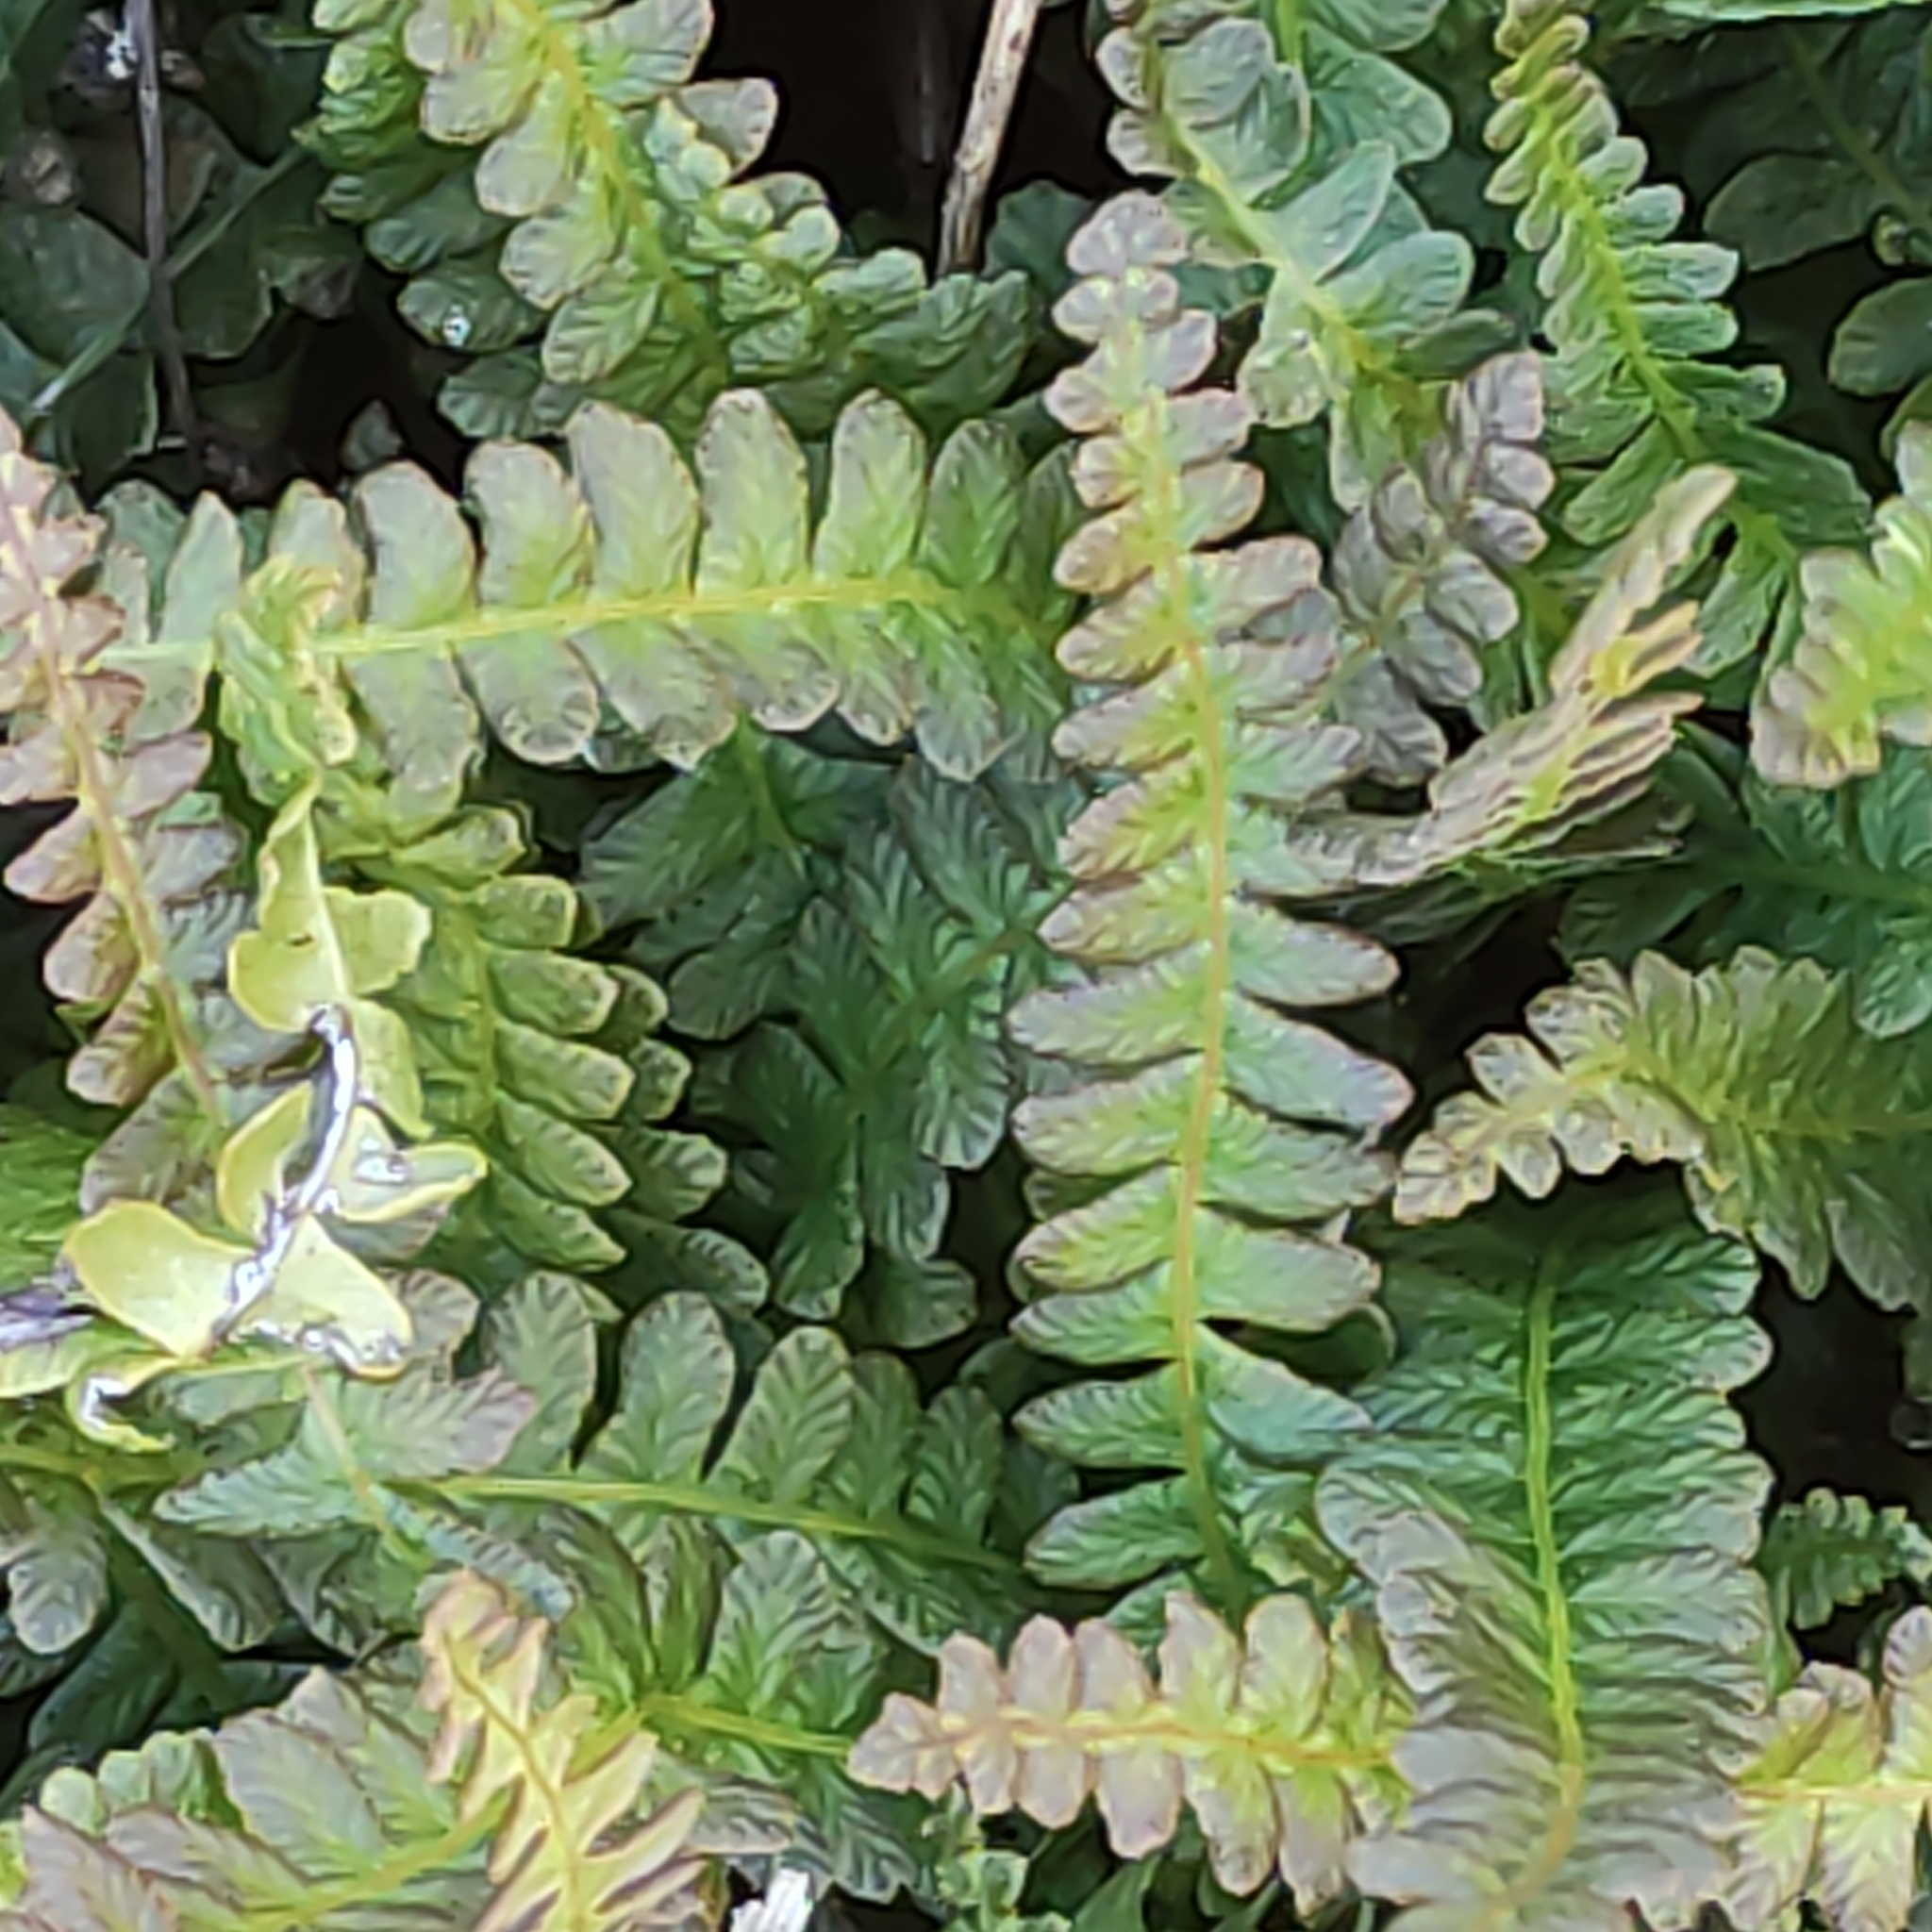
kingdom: Plantae
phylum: Tracheophyta
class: Polypodiopsida
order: Polypodiales
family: Blechnaceae
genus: Austroblechnum
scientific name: Austroblechnum penna-marina
